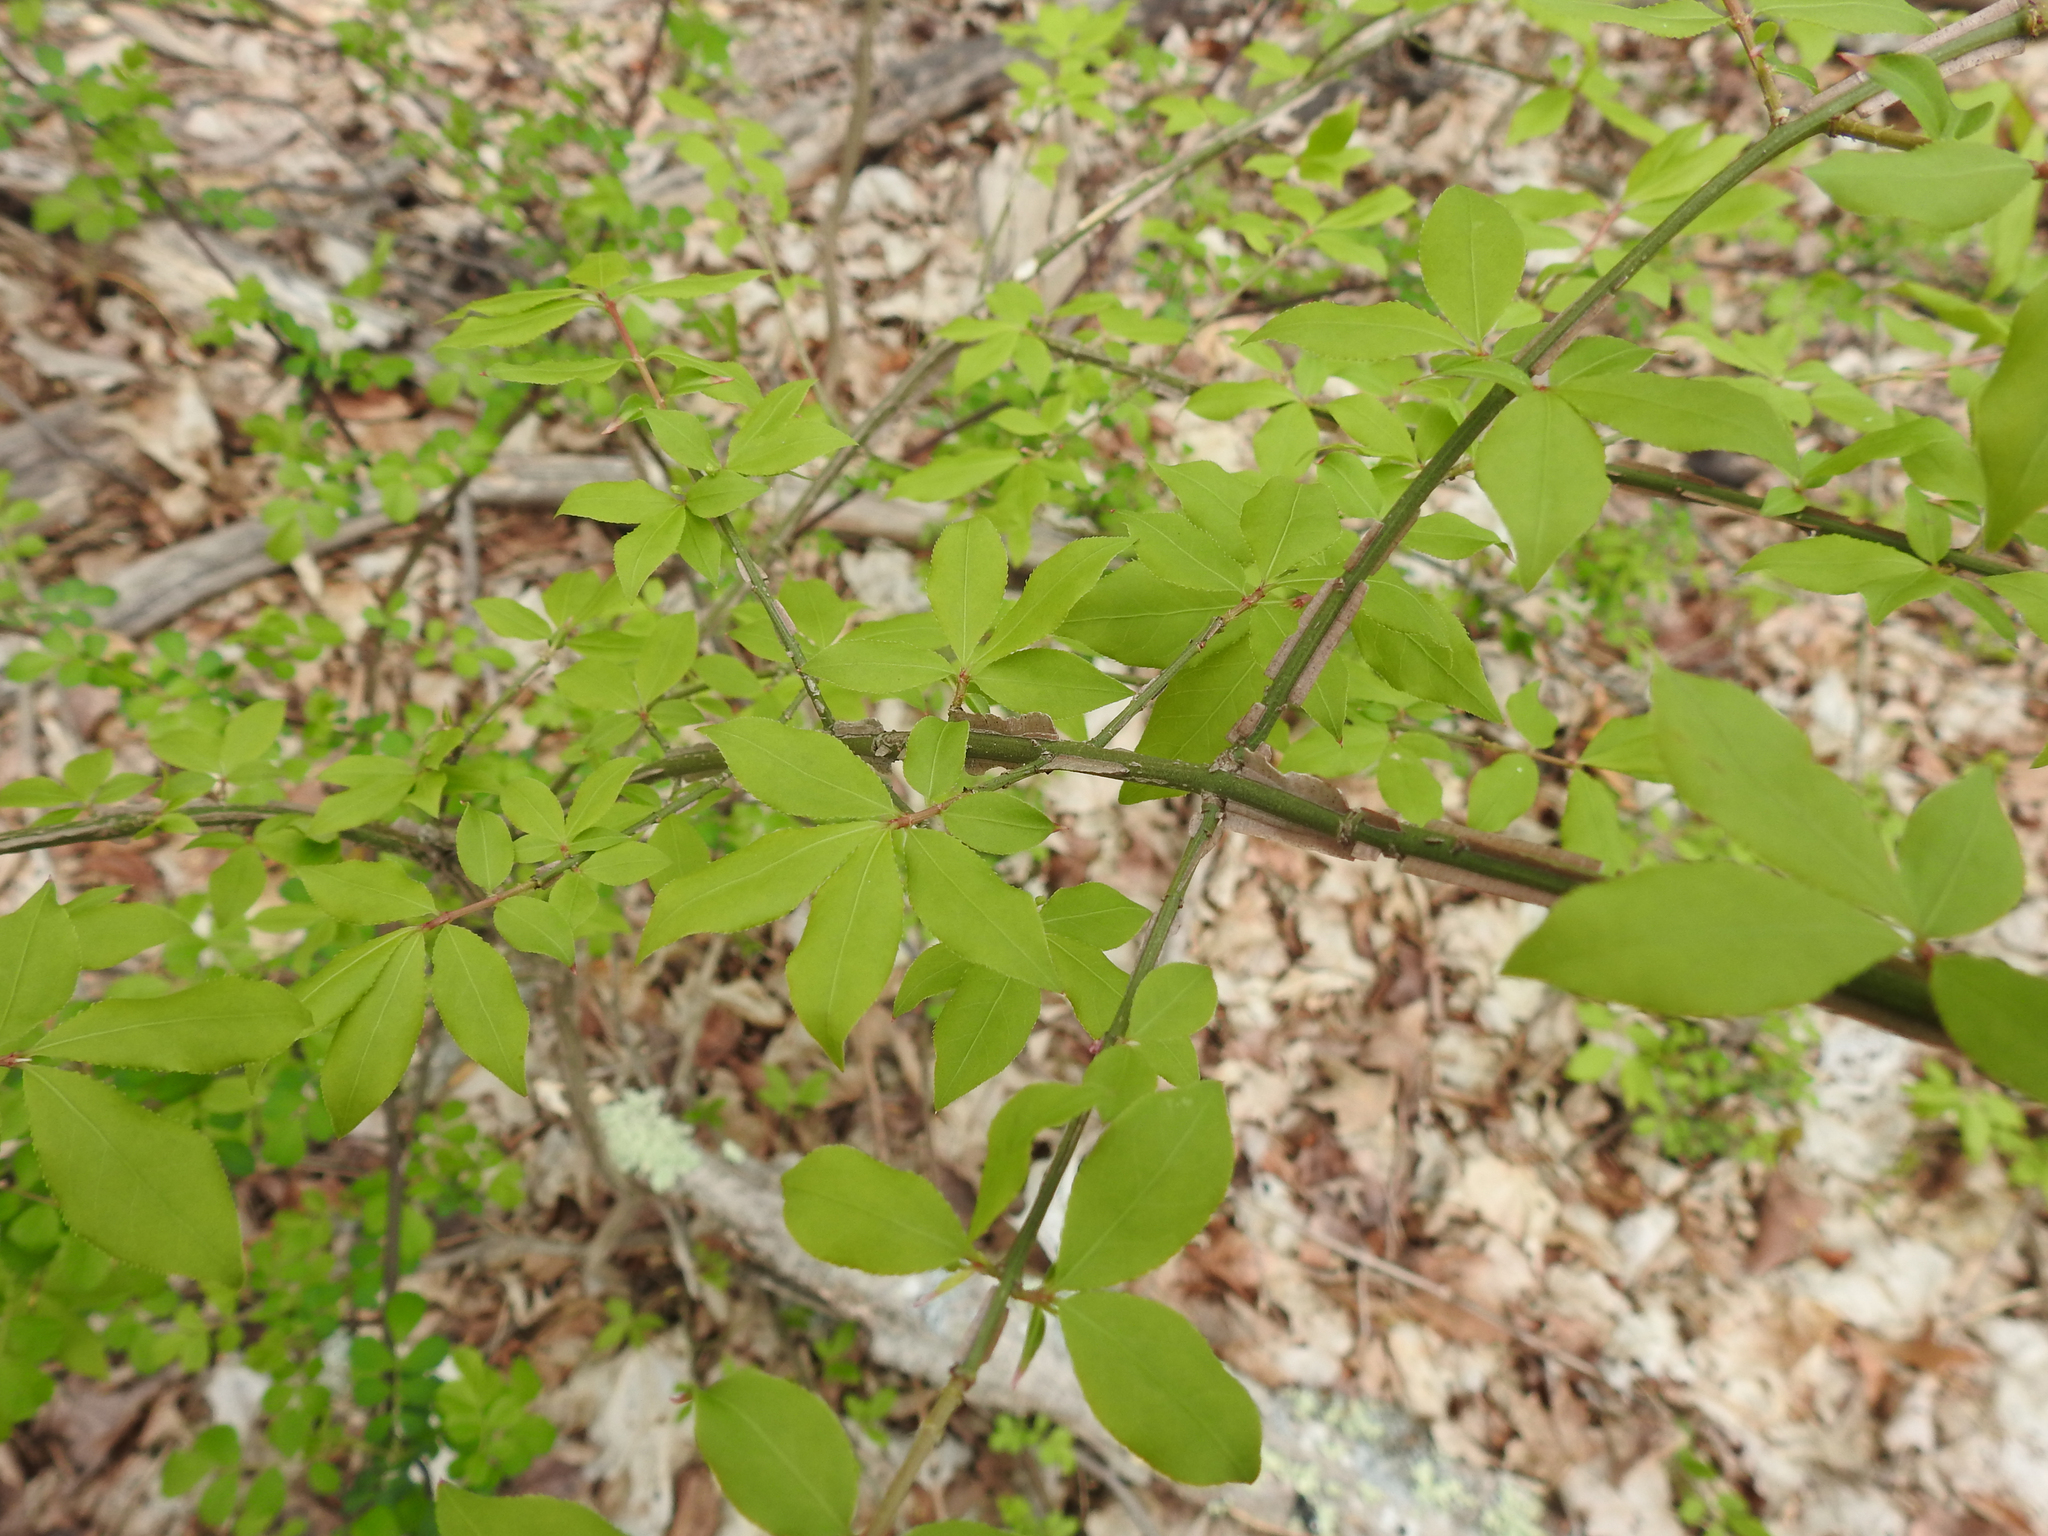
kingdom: Plantae
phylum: Tracheophyta
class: Magnoliopsida
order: Celastrales
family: Celastraceae
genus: Euonymus
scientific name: Euonymus alatus
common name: Winged euonymus
